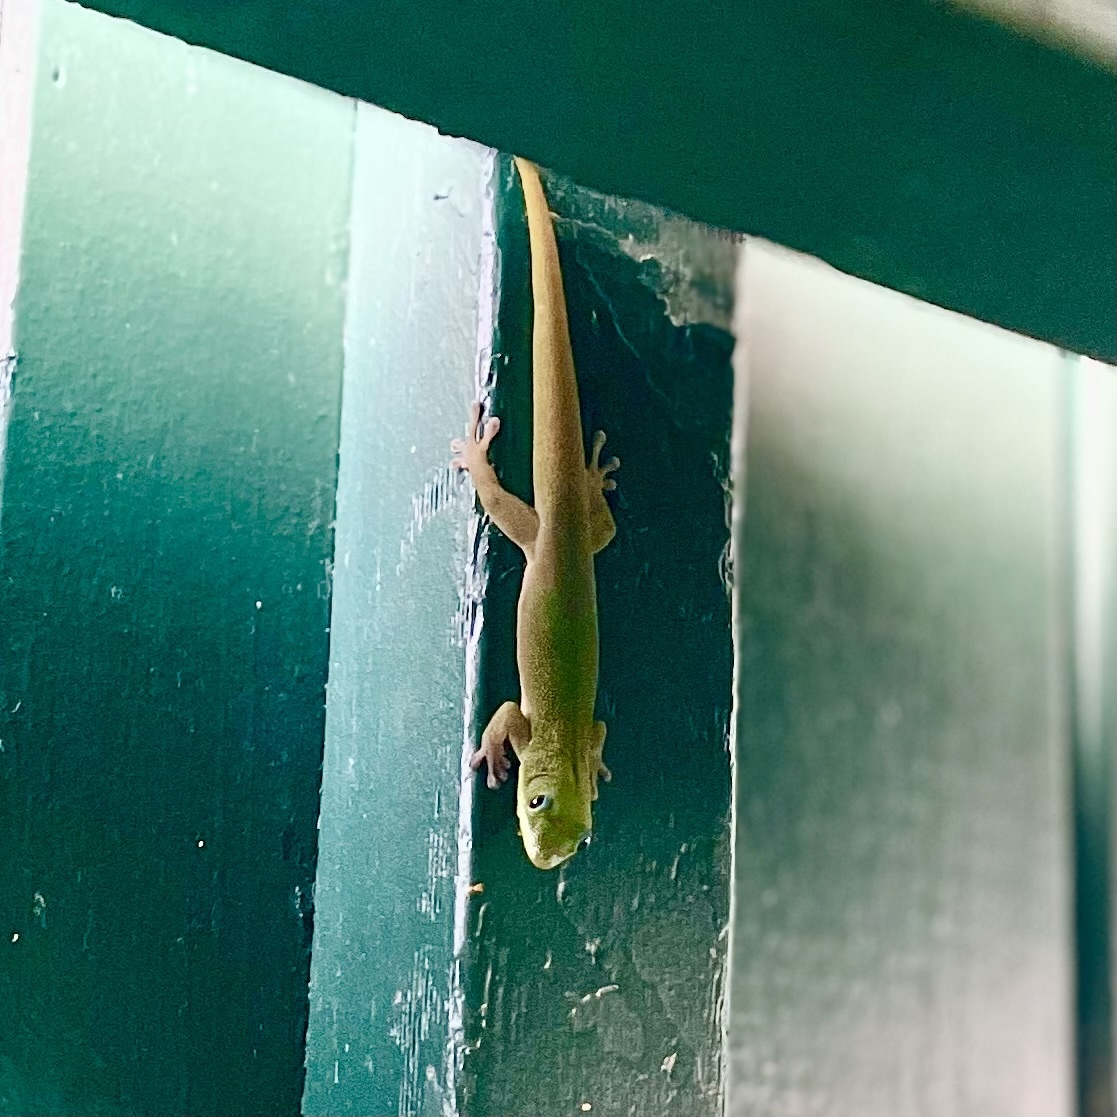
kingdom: Animalia
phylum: Chordata
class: Squamata
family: Gekkonidae
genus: Phelsuma
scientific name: Phelsuma laticauda
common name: Gold dust day gecko
